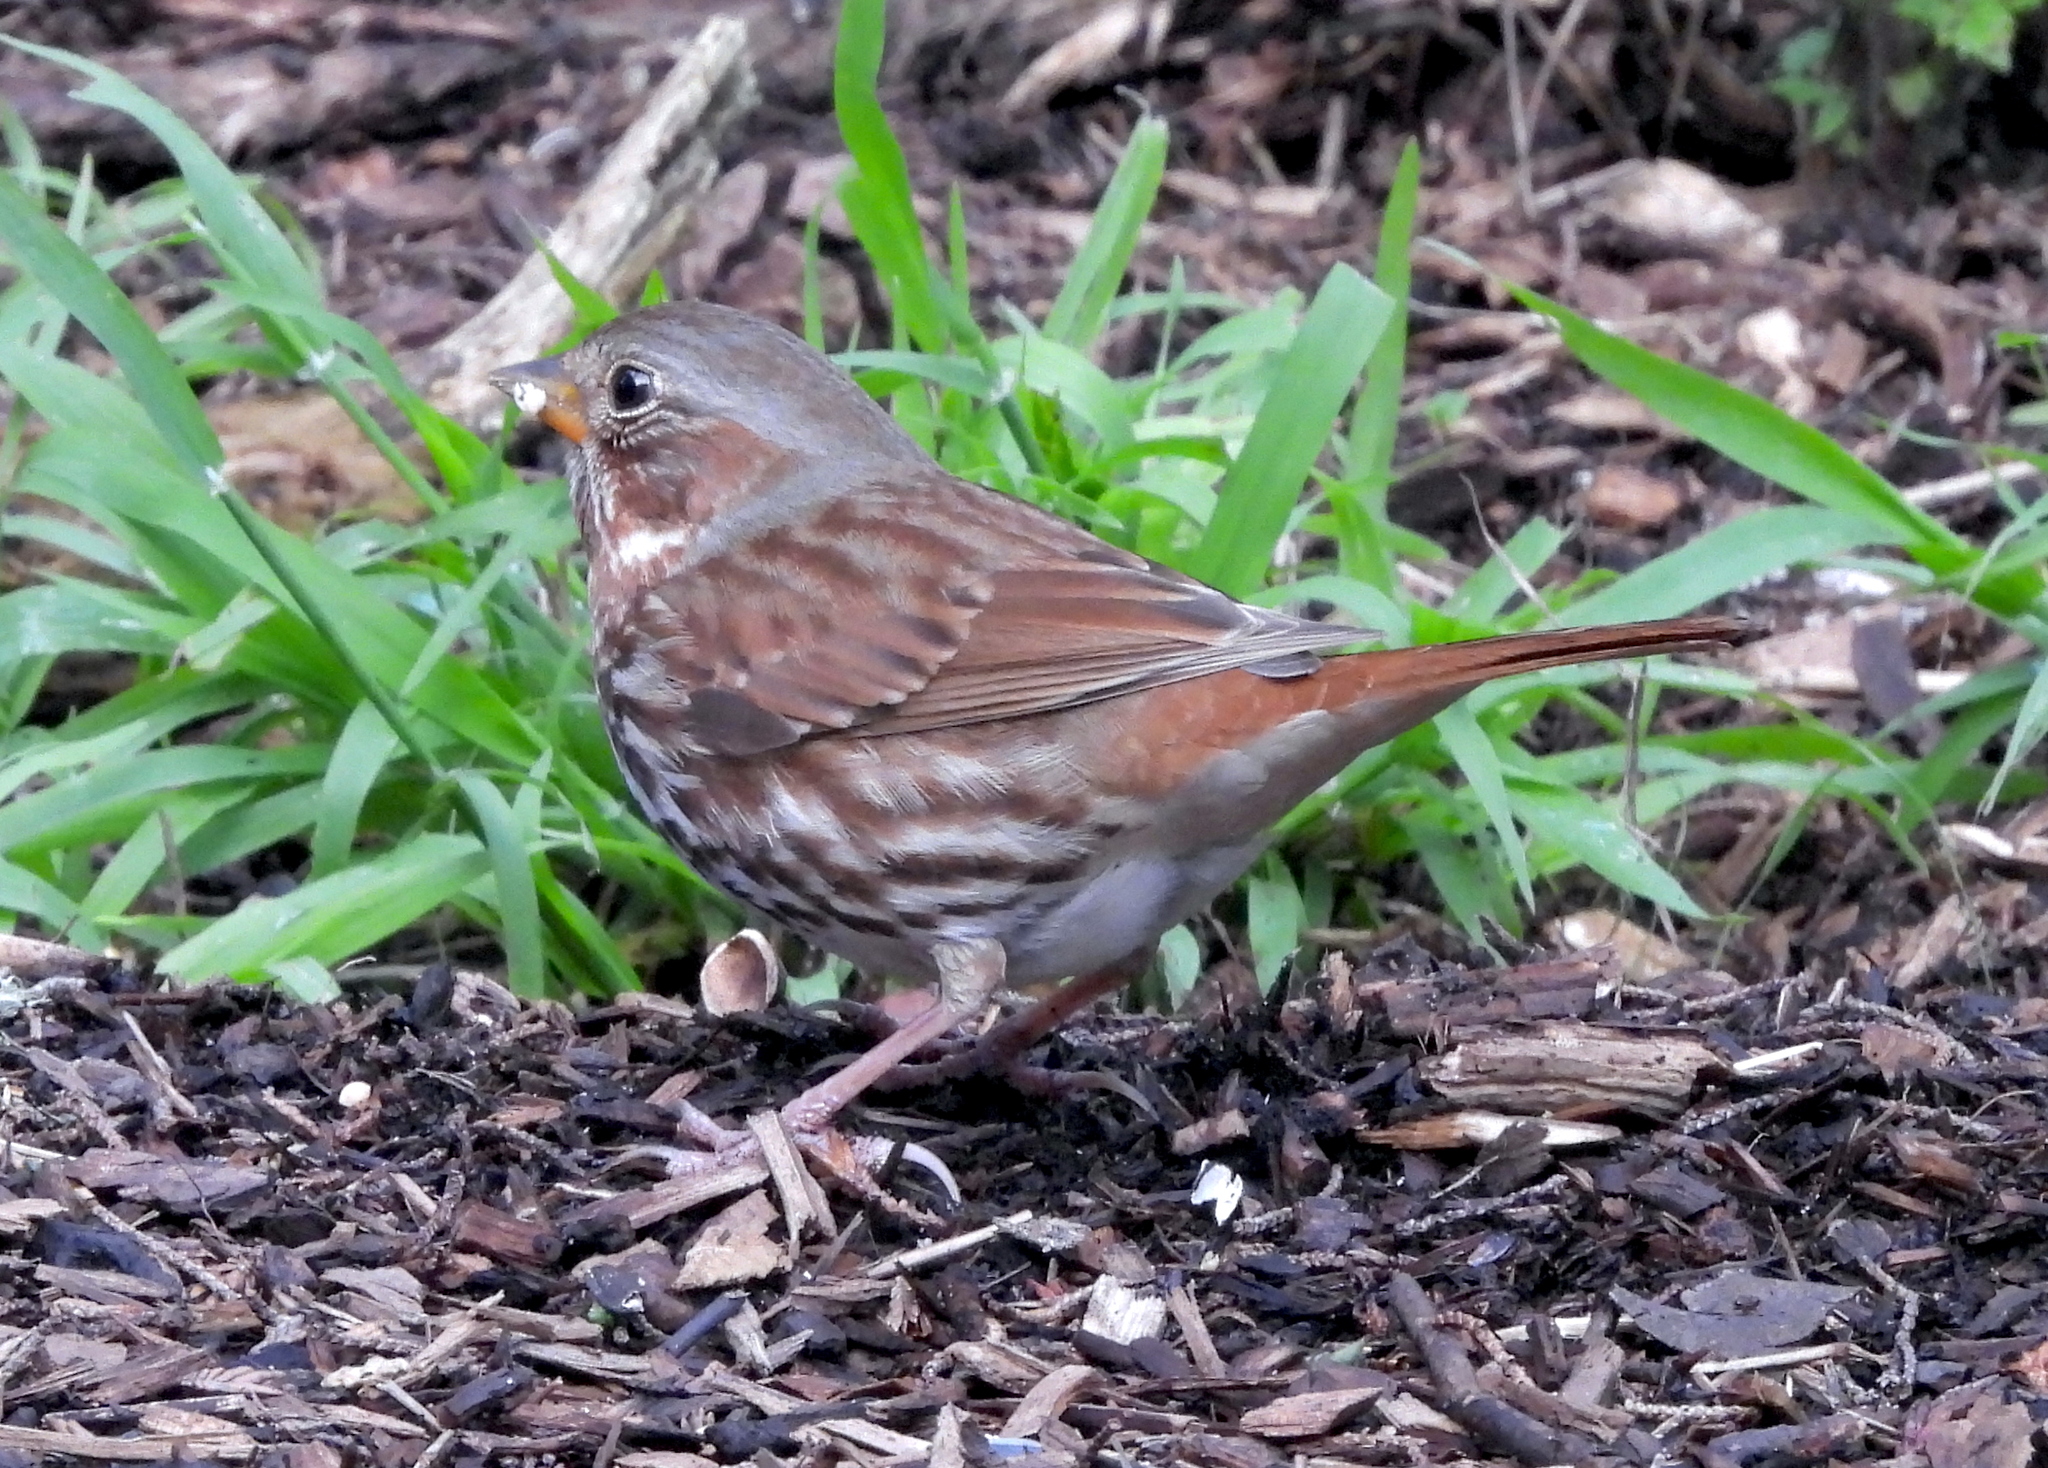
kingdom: Animalia
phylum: Chordata
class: Aves
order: Passeriformes
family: Passerellidae
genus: Passerella
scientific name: Passerella iliaca
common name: Fox sparrow
